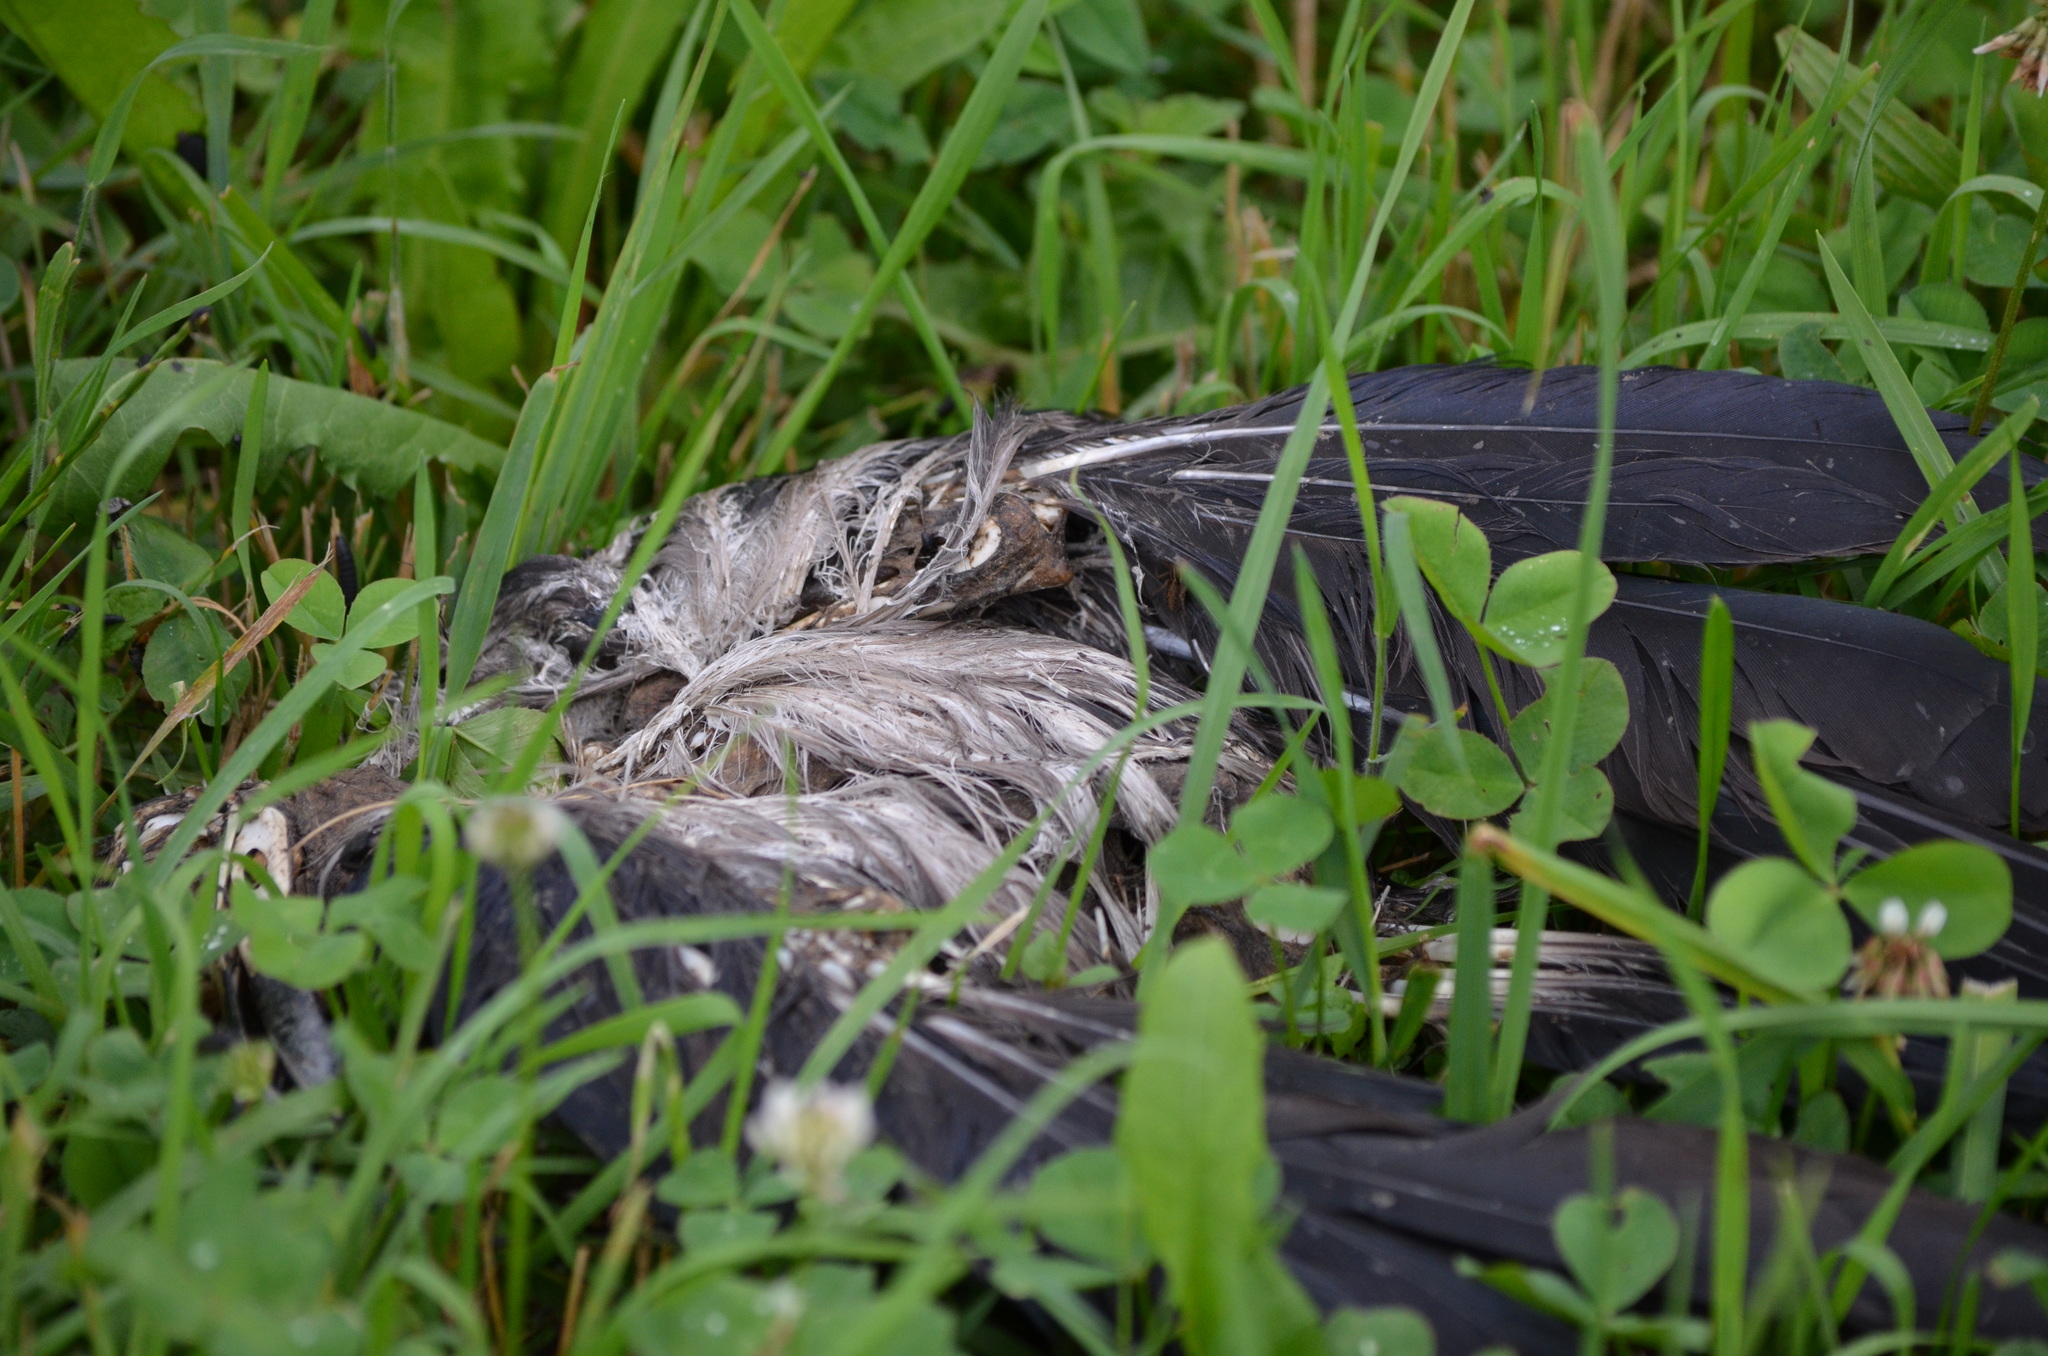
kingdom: Animalia
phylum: Chordata
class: Aves
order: Passeriformes
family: Corvidae
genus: Corvus
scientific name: Corvus cornix
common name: Hooded crow
